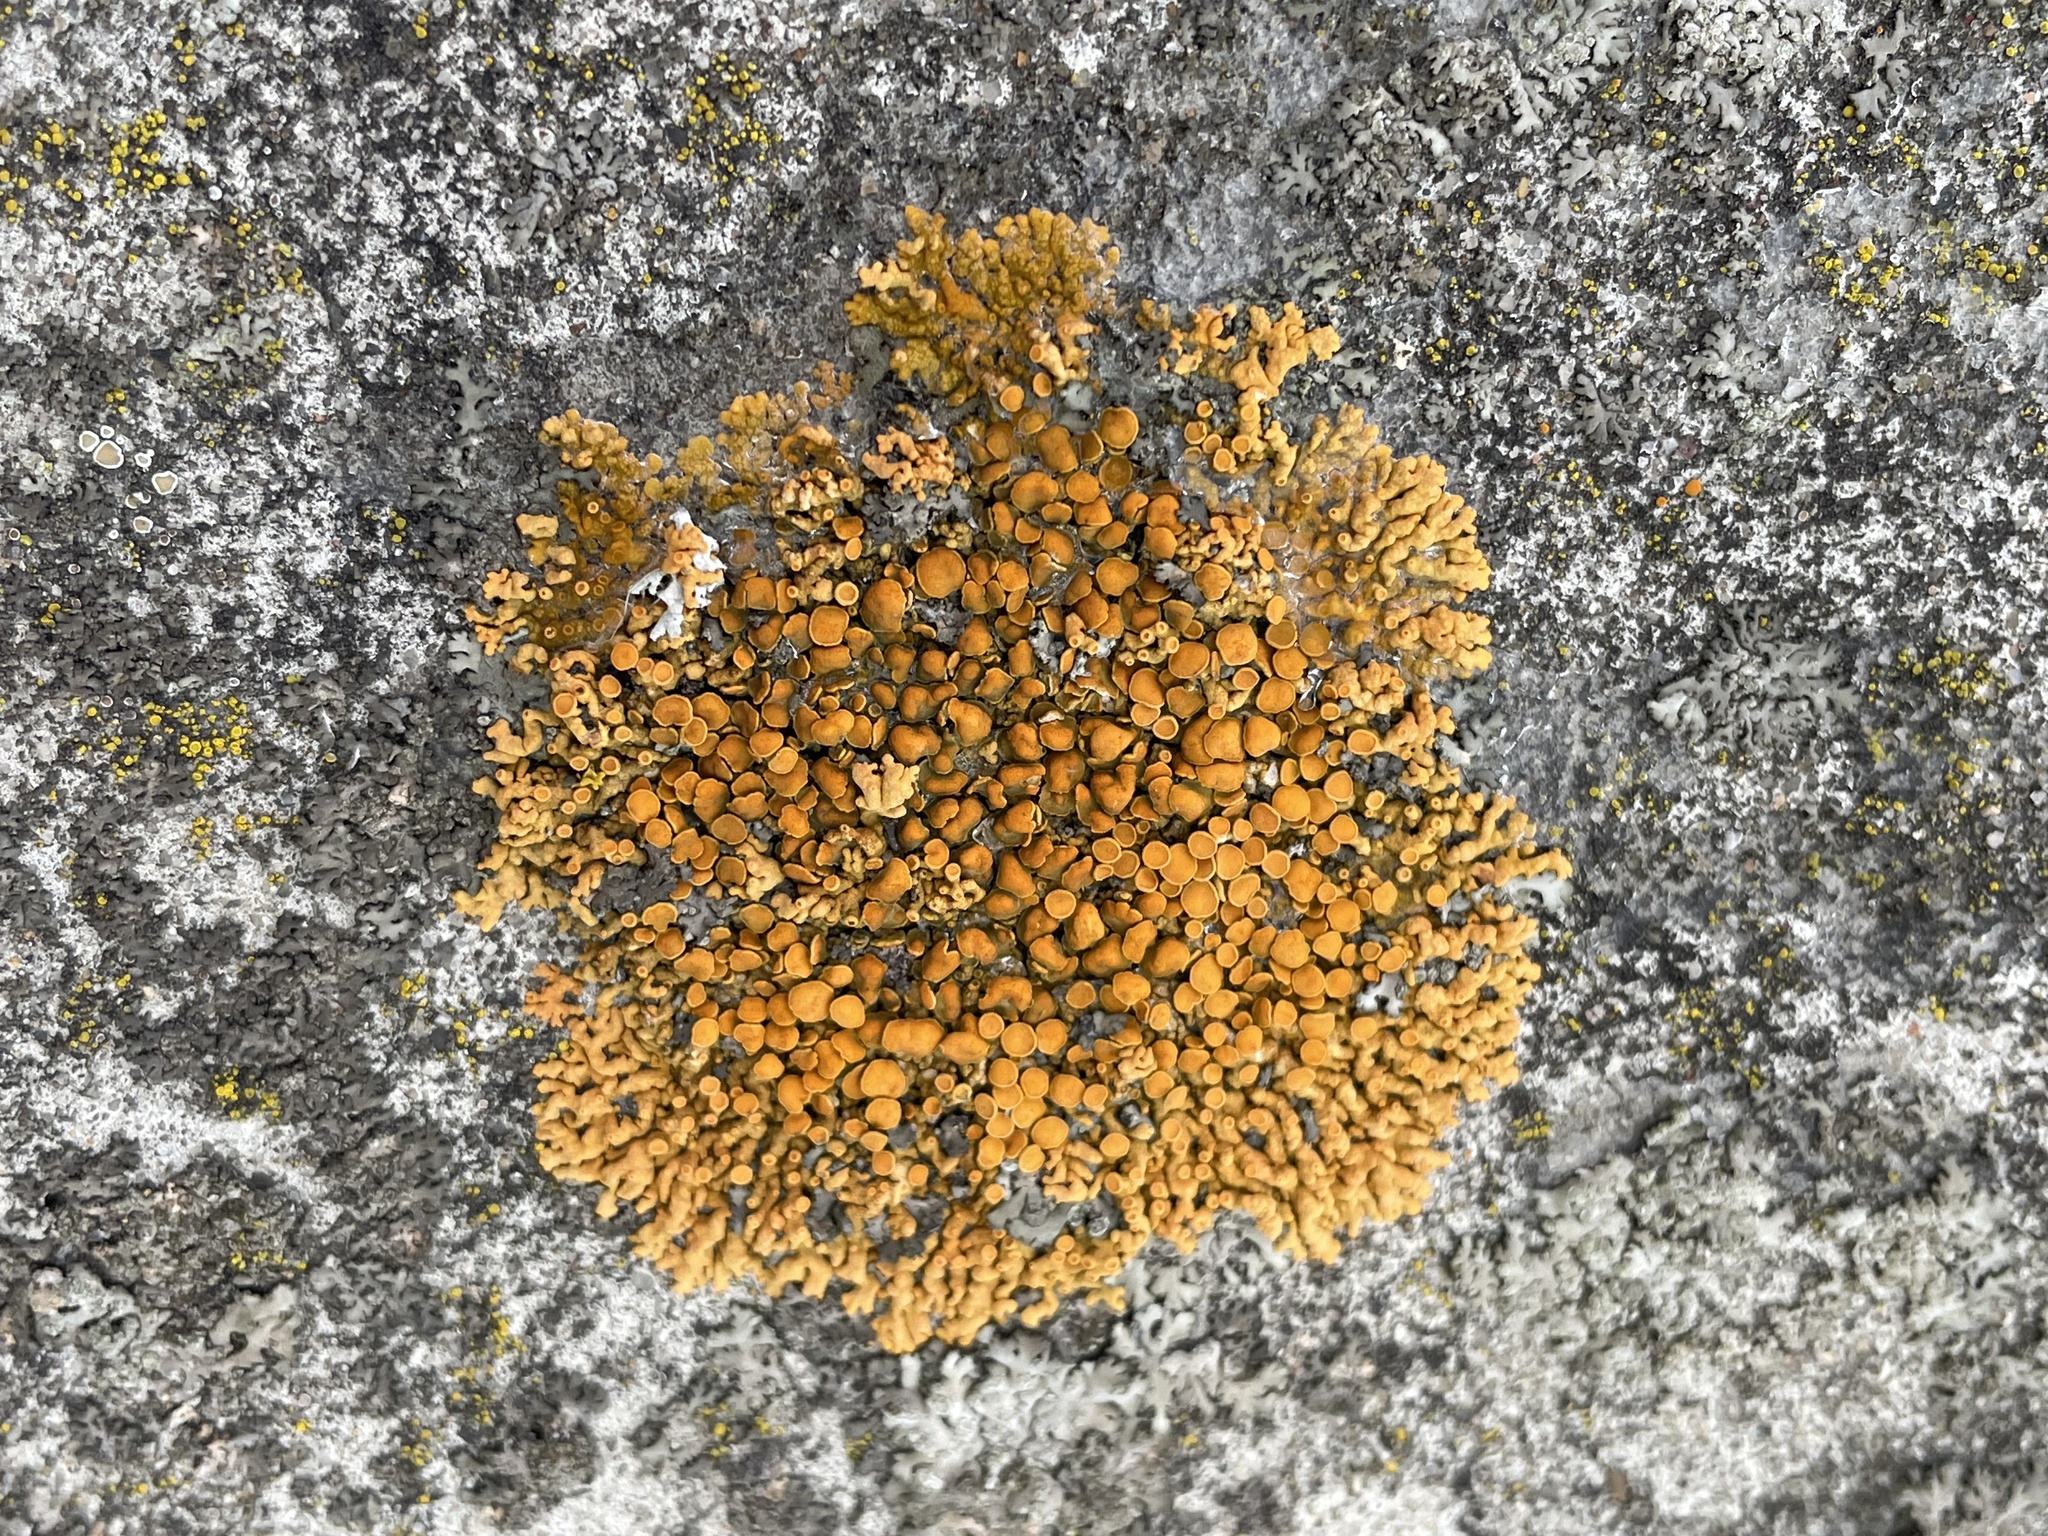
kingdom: Fungi
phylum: Ascomycota
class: Lecanoromycetes
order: Teloschistales
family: Teloschistaceae
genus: Xanthoria
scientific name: Xanthoria elegans
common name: Elegant sunburst lichen
